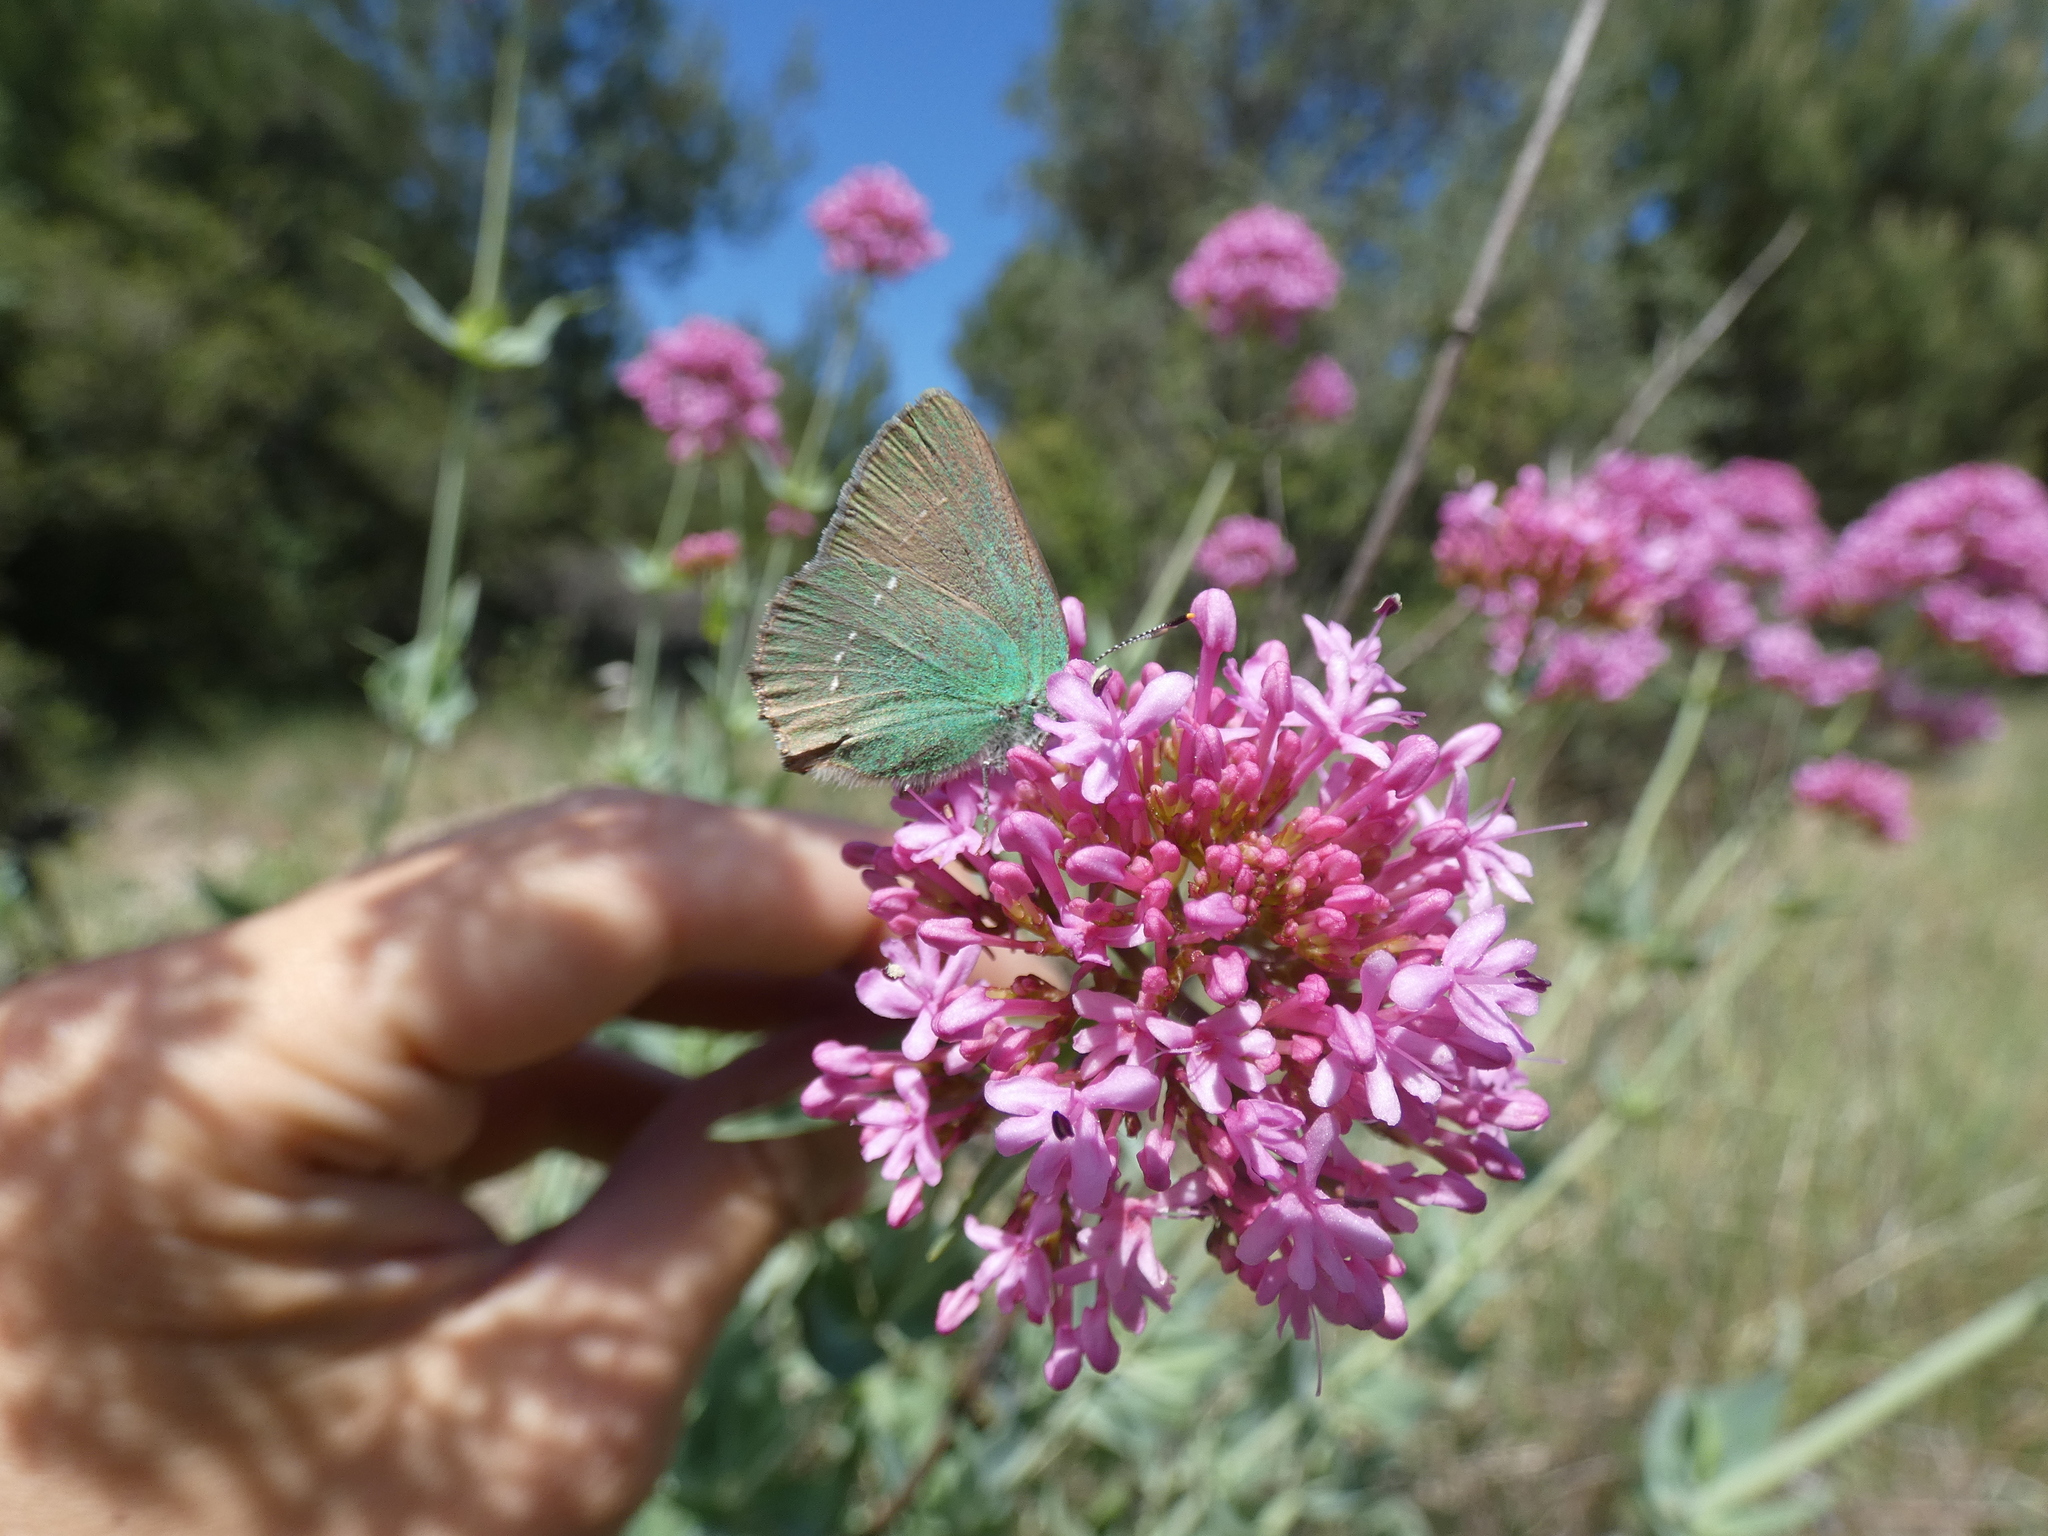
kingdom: Animalia
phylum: Arthropoda
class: Insecta
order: Lepidoptera
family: Lycaenidae
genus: Callophrys
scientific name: Callophrys rubi
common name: Green hairstreak
